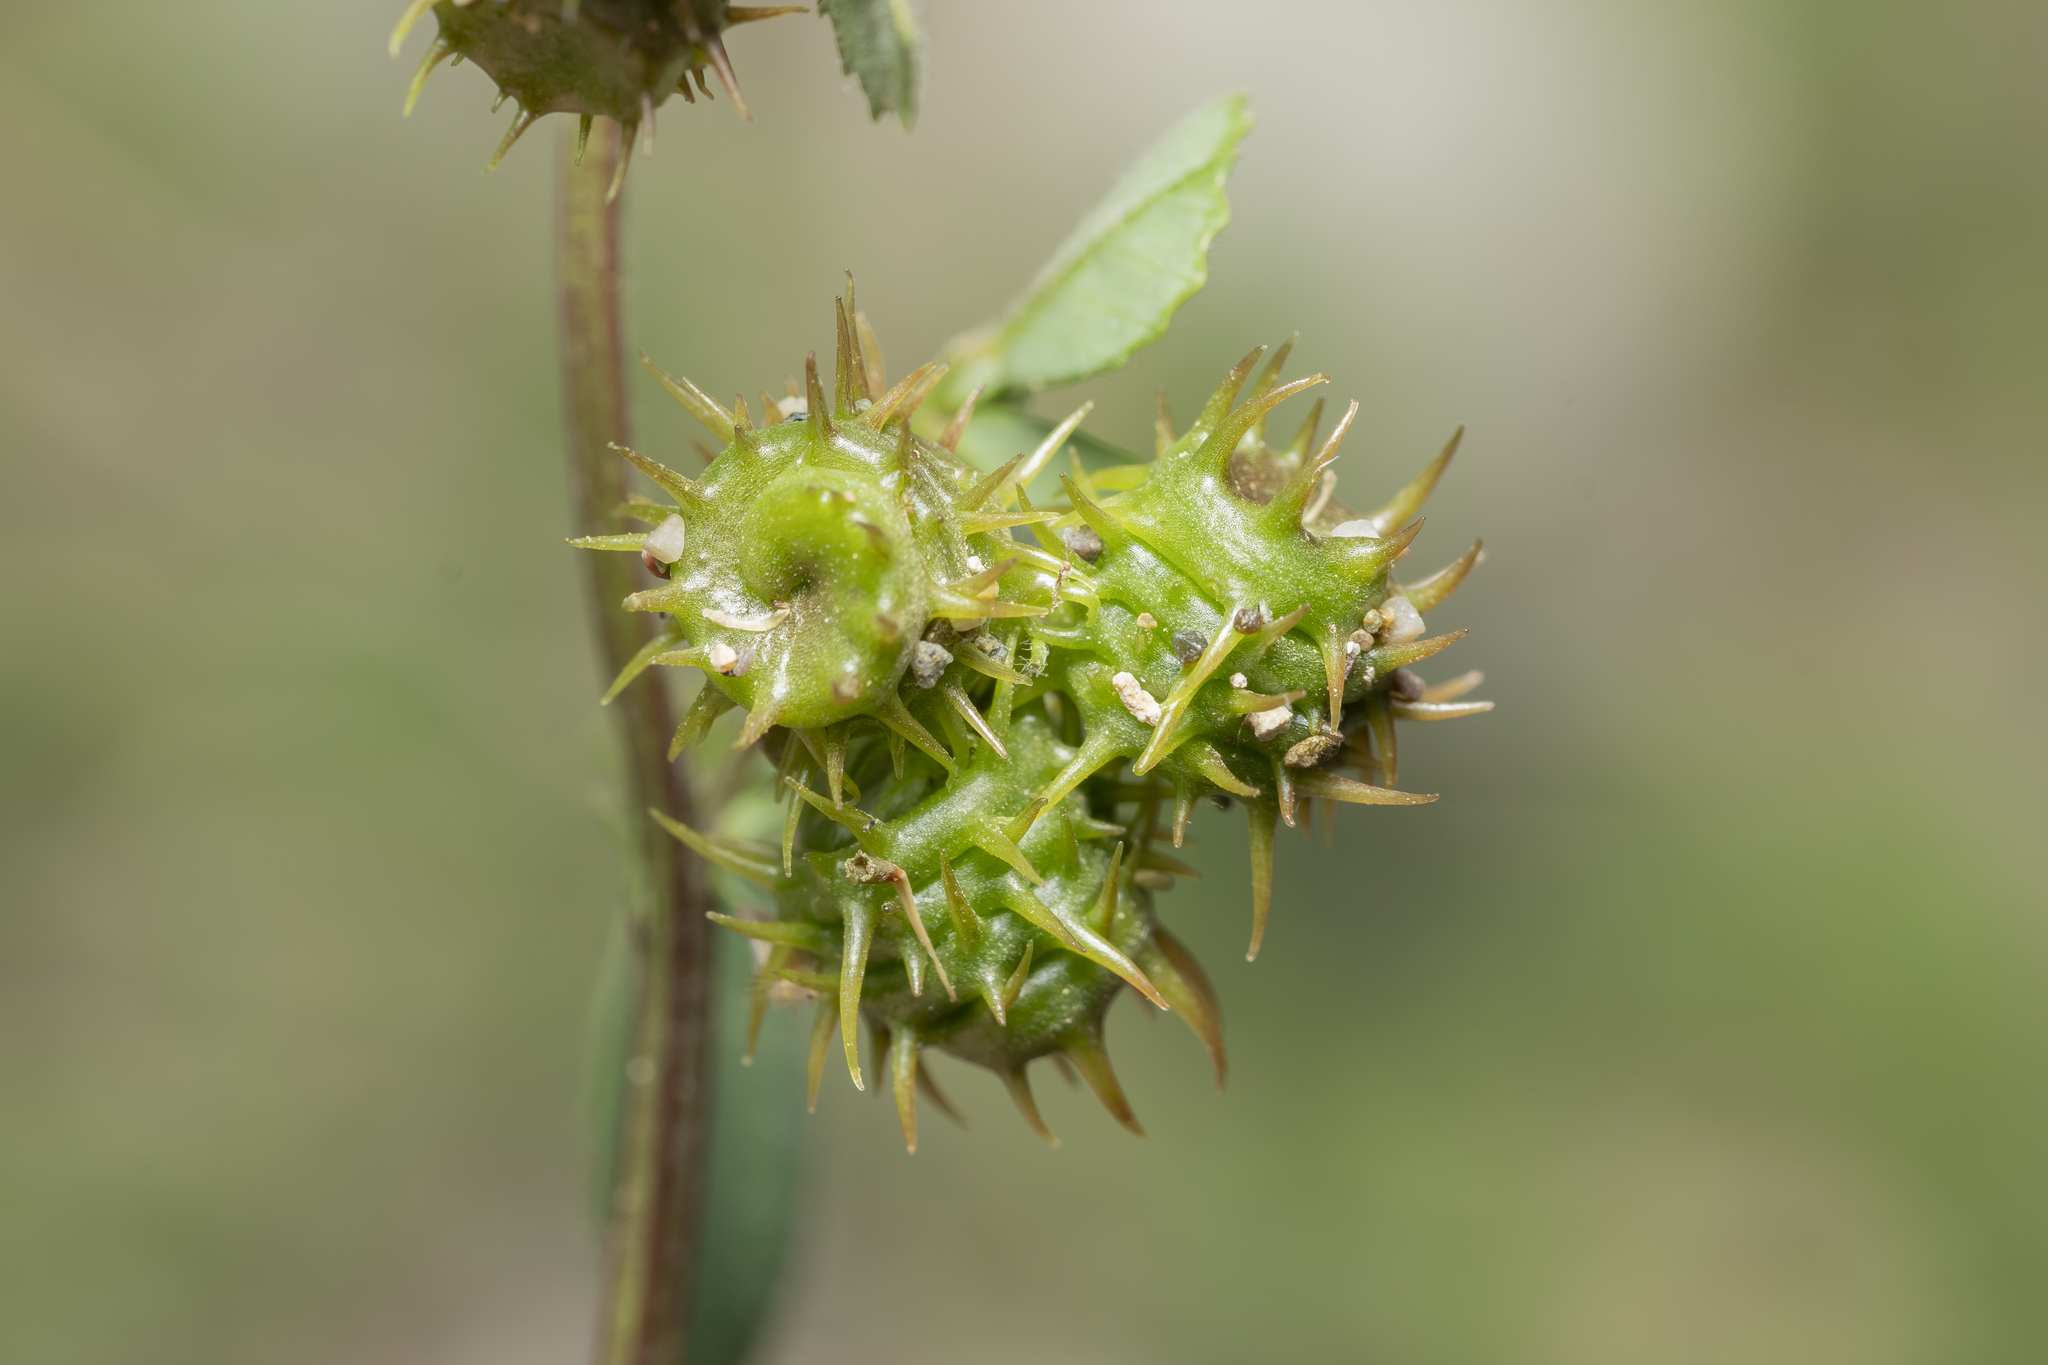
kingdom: Plantae
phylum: Tracheophyta
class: Magnoliopsida
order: Fabales
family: Fabaceae
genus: Medicago
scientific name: Medicago littoralis
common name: Shore medick
